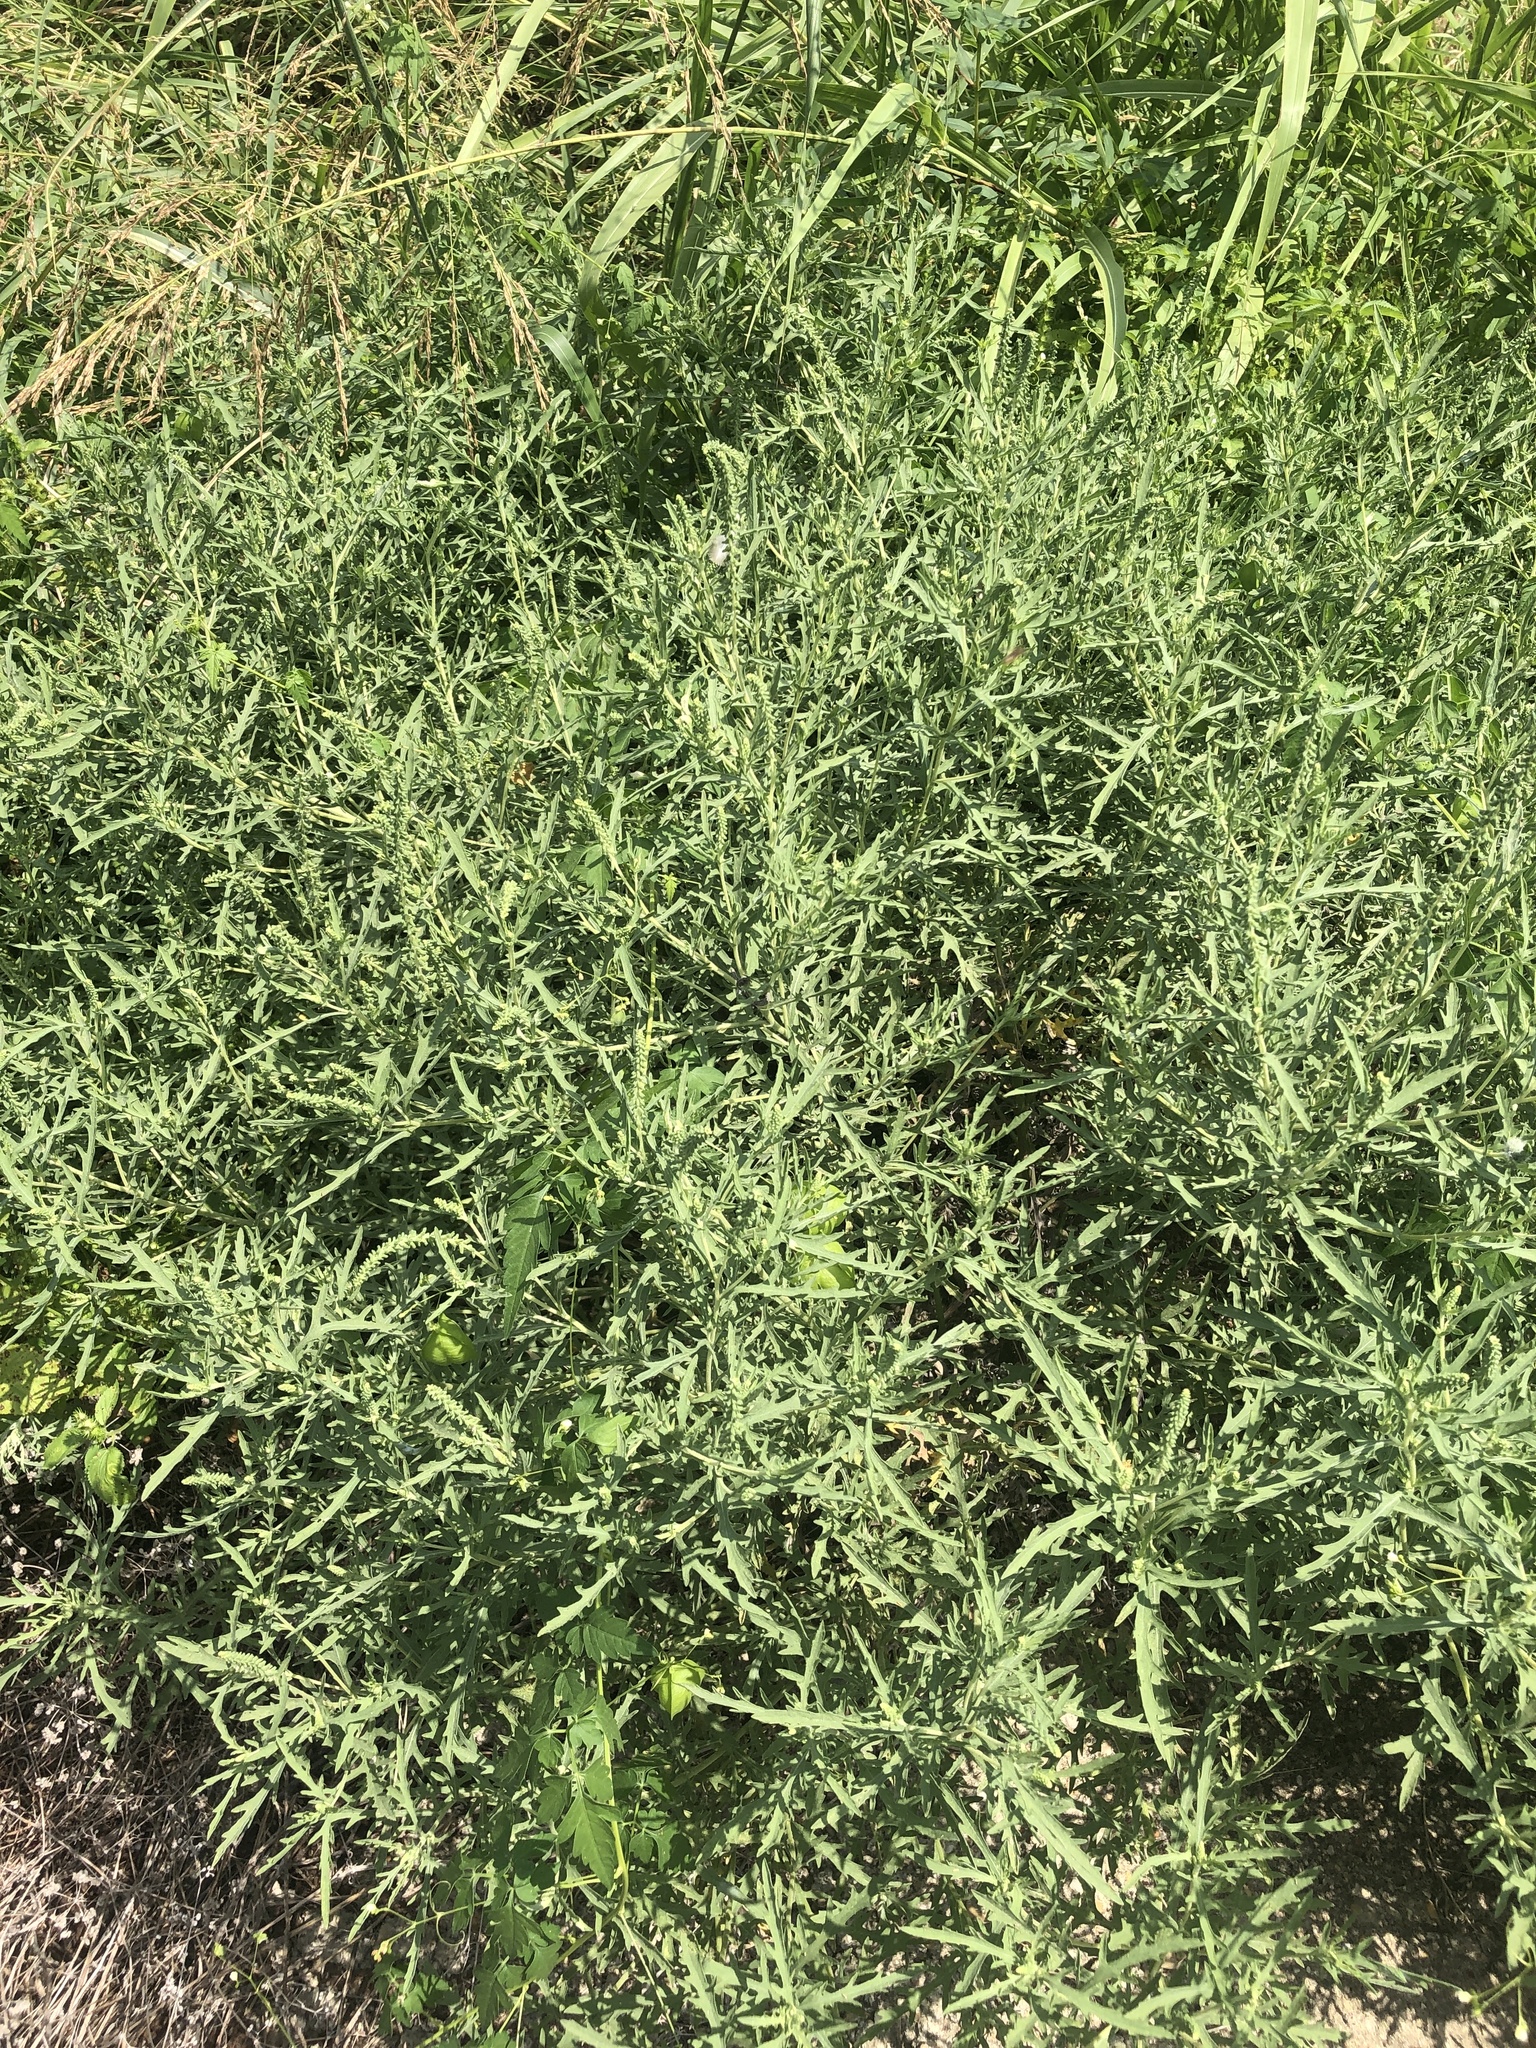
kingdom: Plantae
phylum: Tracheophyta
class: Magnoliopsida
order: Asterales
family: Asteraceae
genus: Ambrosia
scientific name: Ambrosia psilostachya
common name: Perennial ragweed
